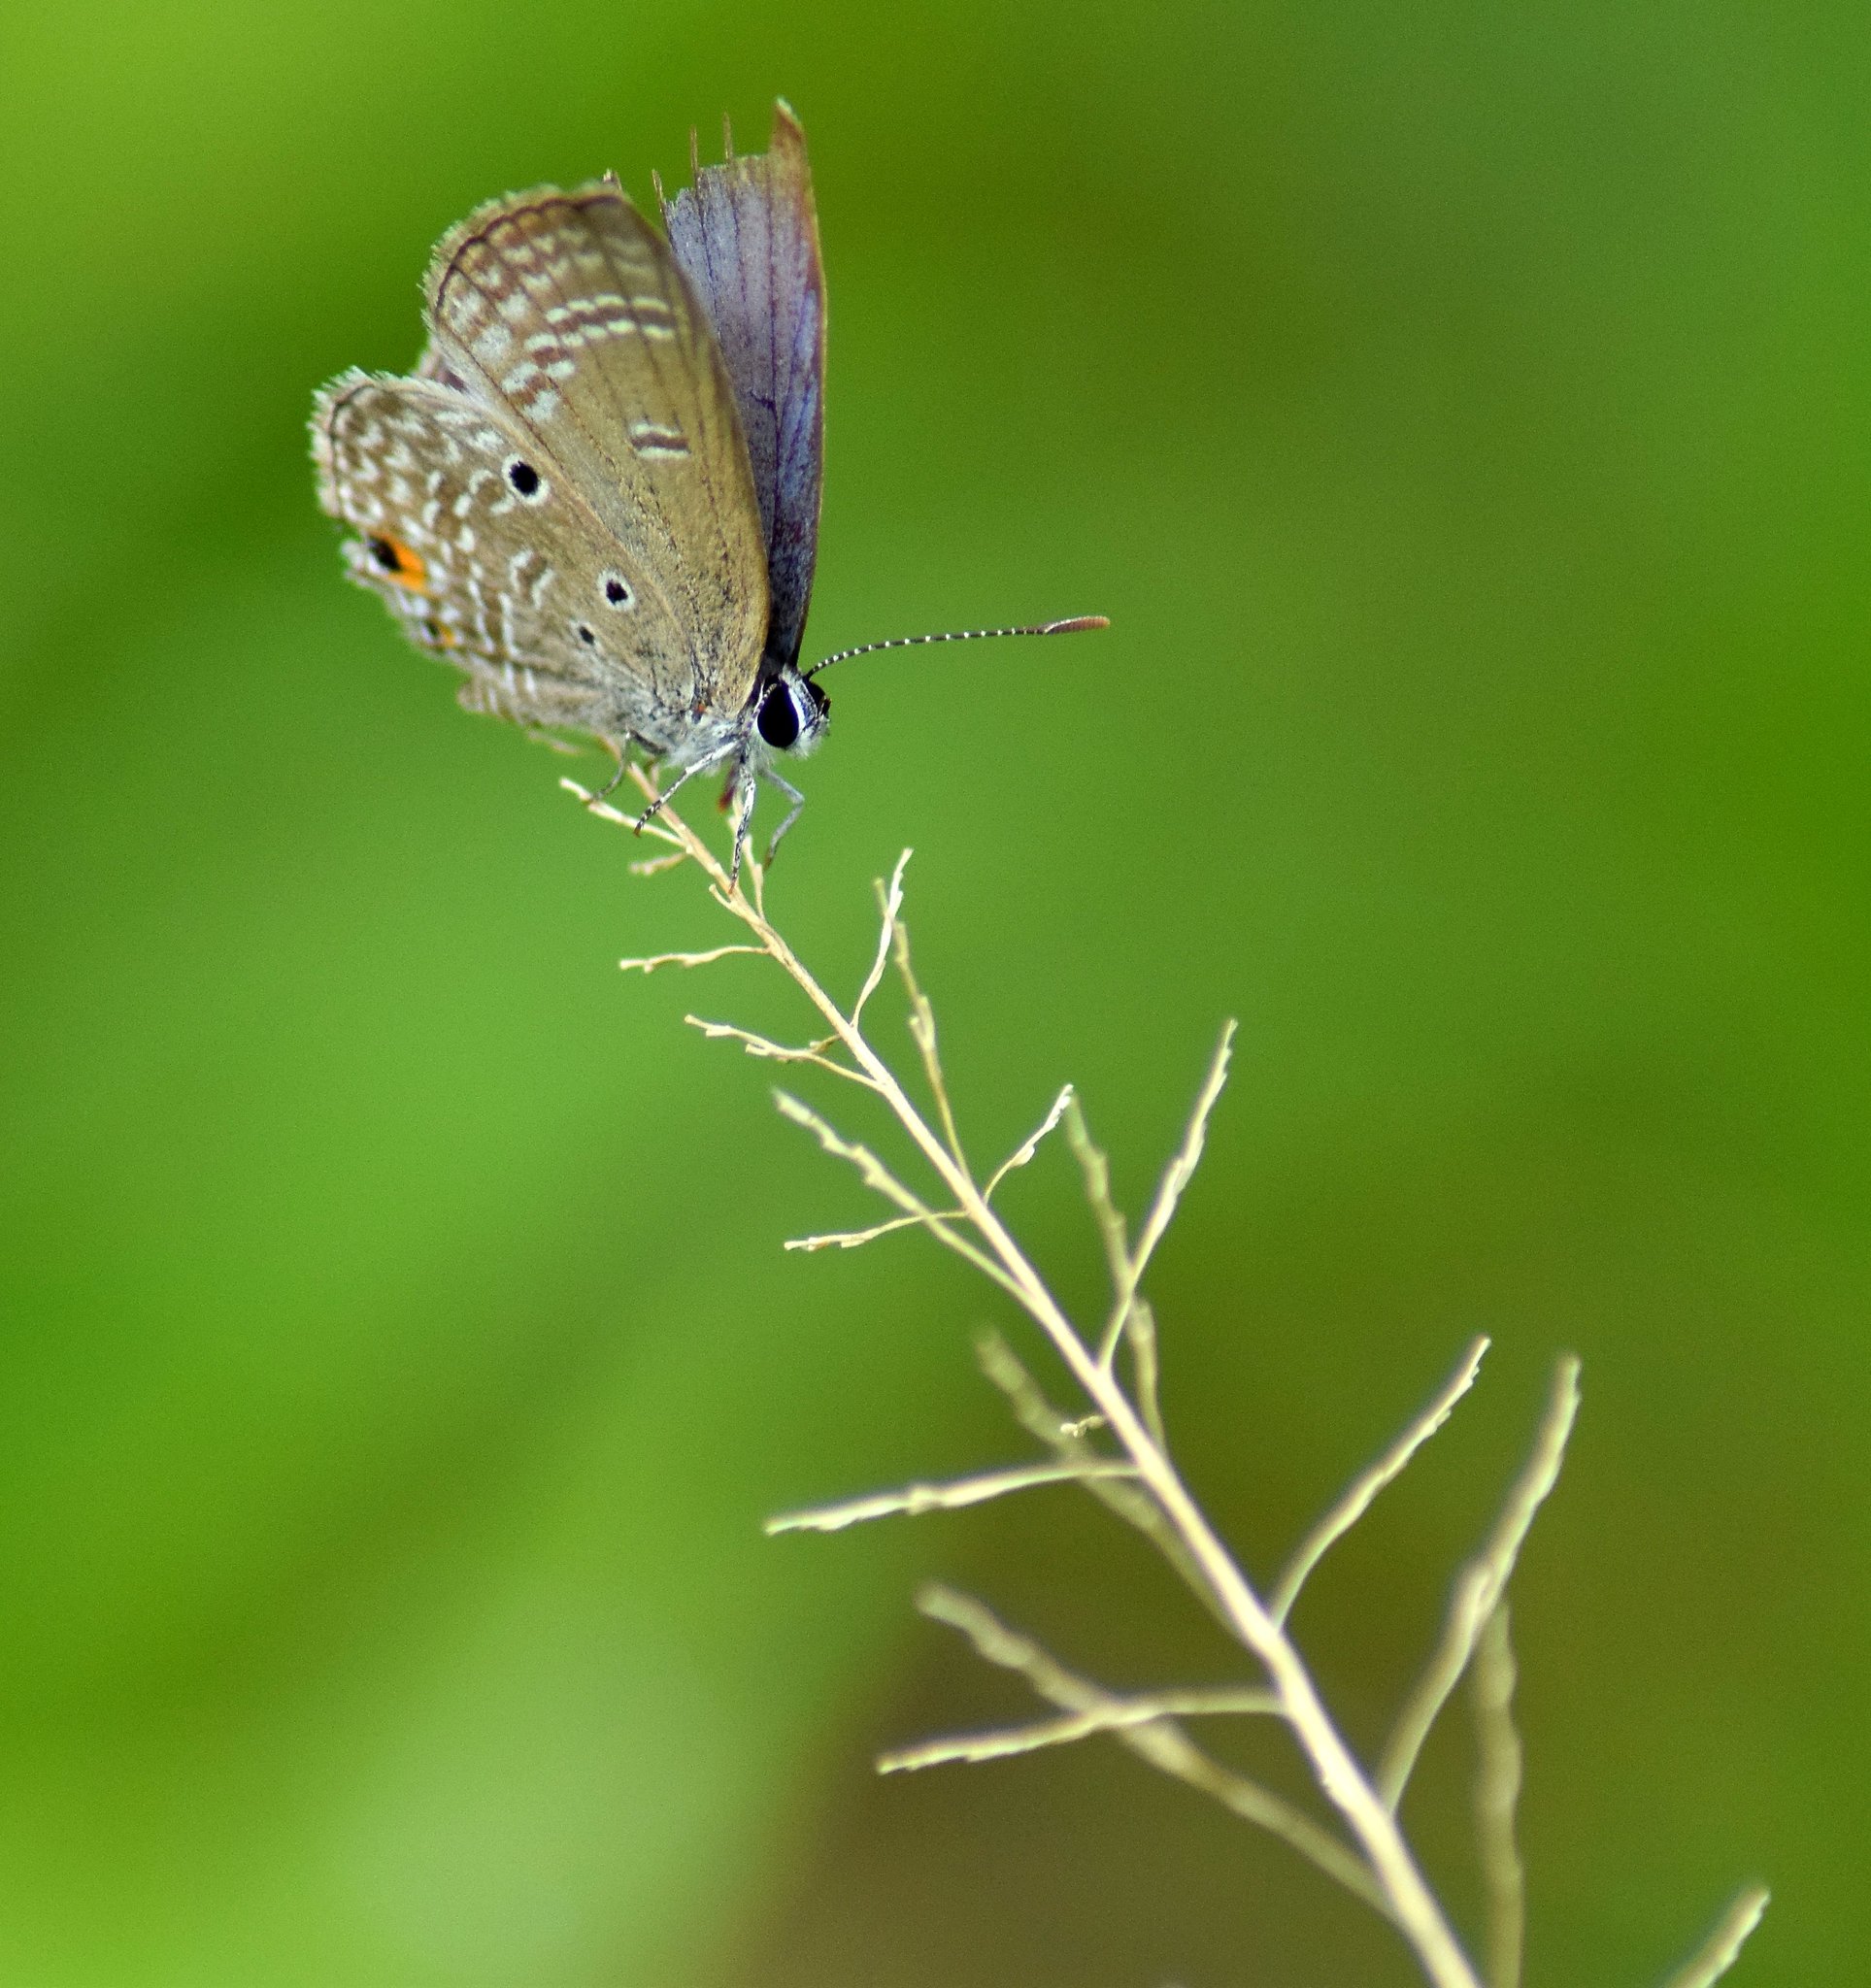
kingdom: Animalia
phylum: Arthropoda
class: Insecta
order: Lepidoptera
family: Lycaenidae
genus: Luthrodes
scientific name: Luthrodes pandava
